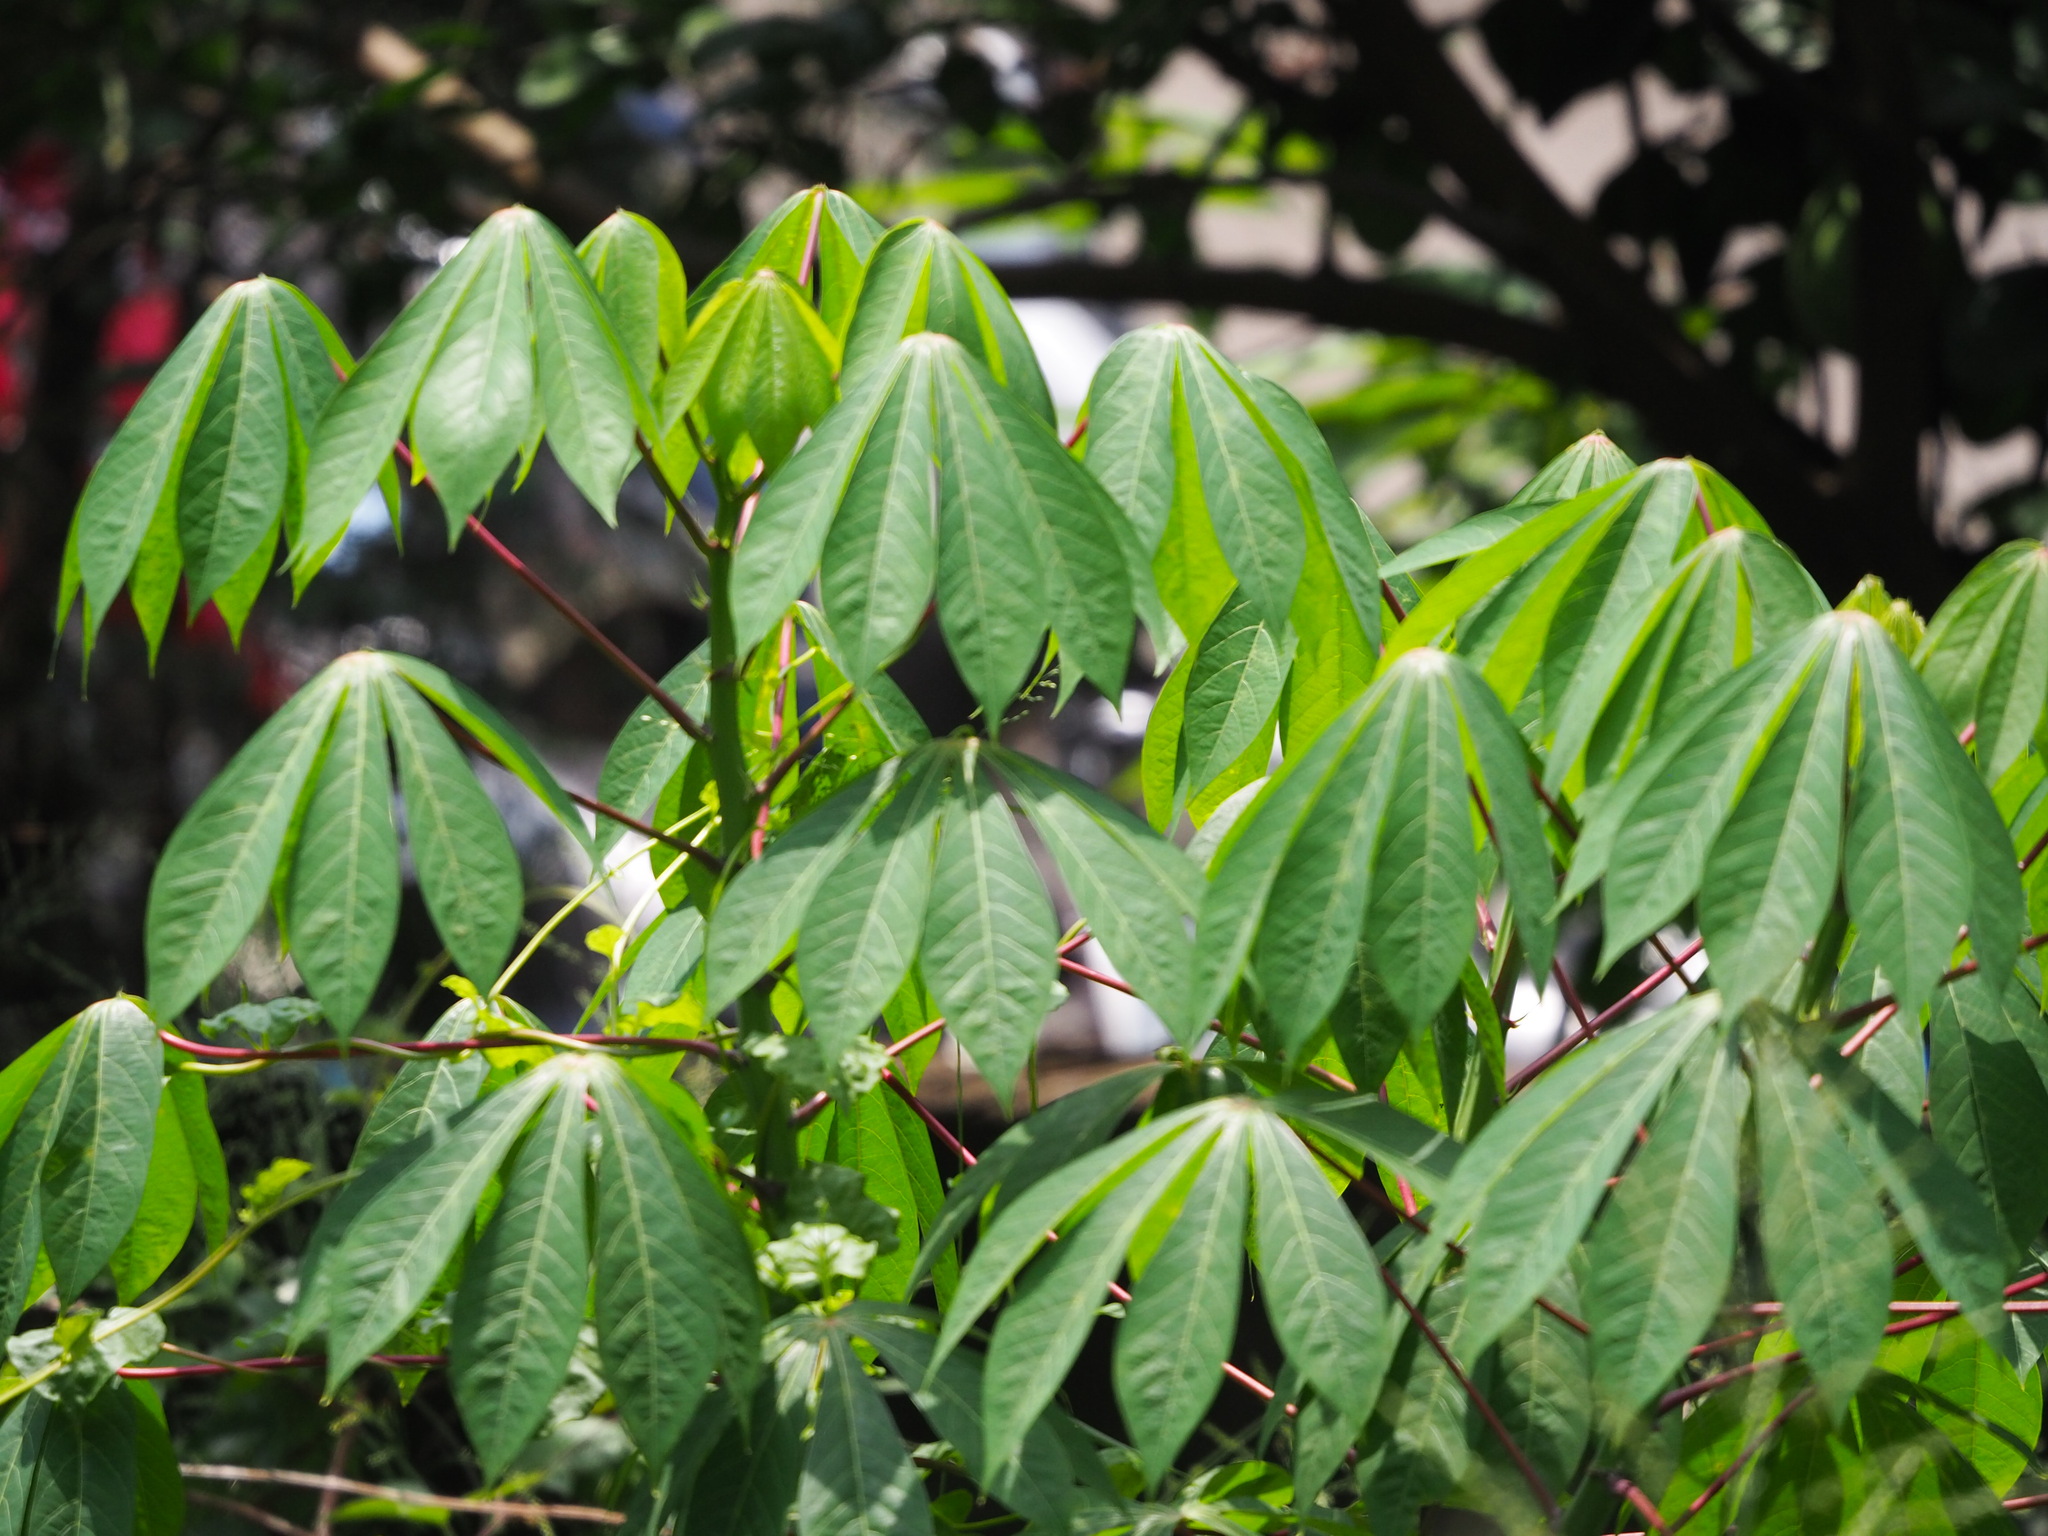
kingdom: Plantae
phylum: Tracheophyta
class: Magnoliopsida
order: Malpighiales
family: Euphorbiaceae
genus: Manihot
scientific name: Manihot esculenta
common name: Cassava
